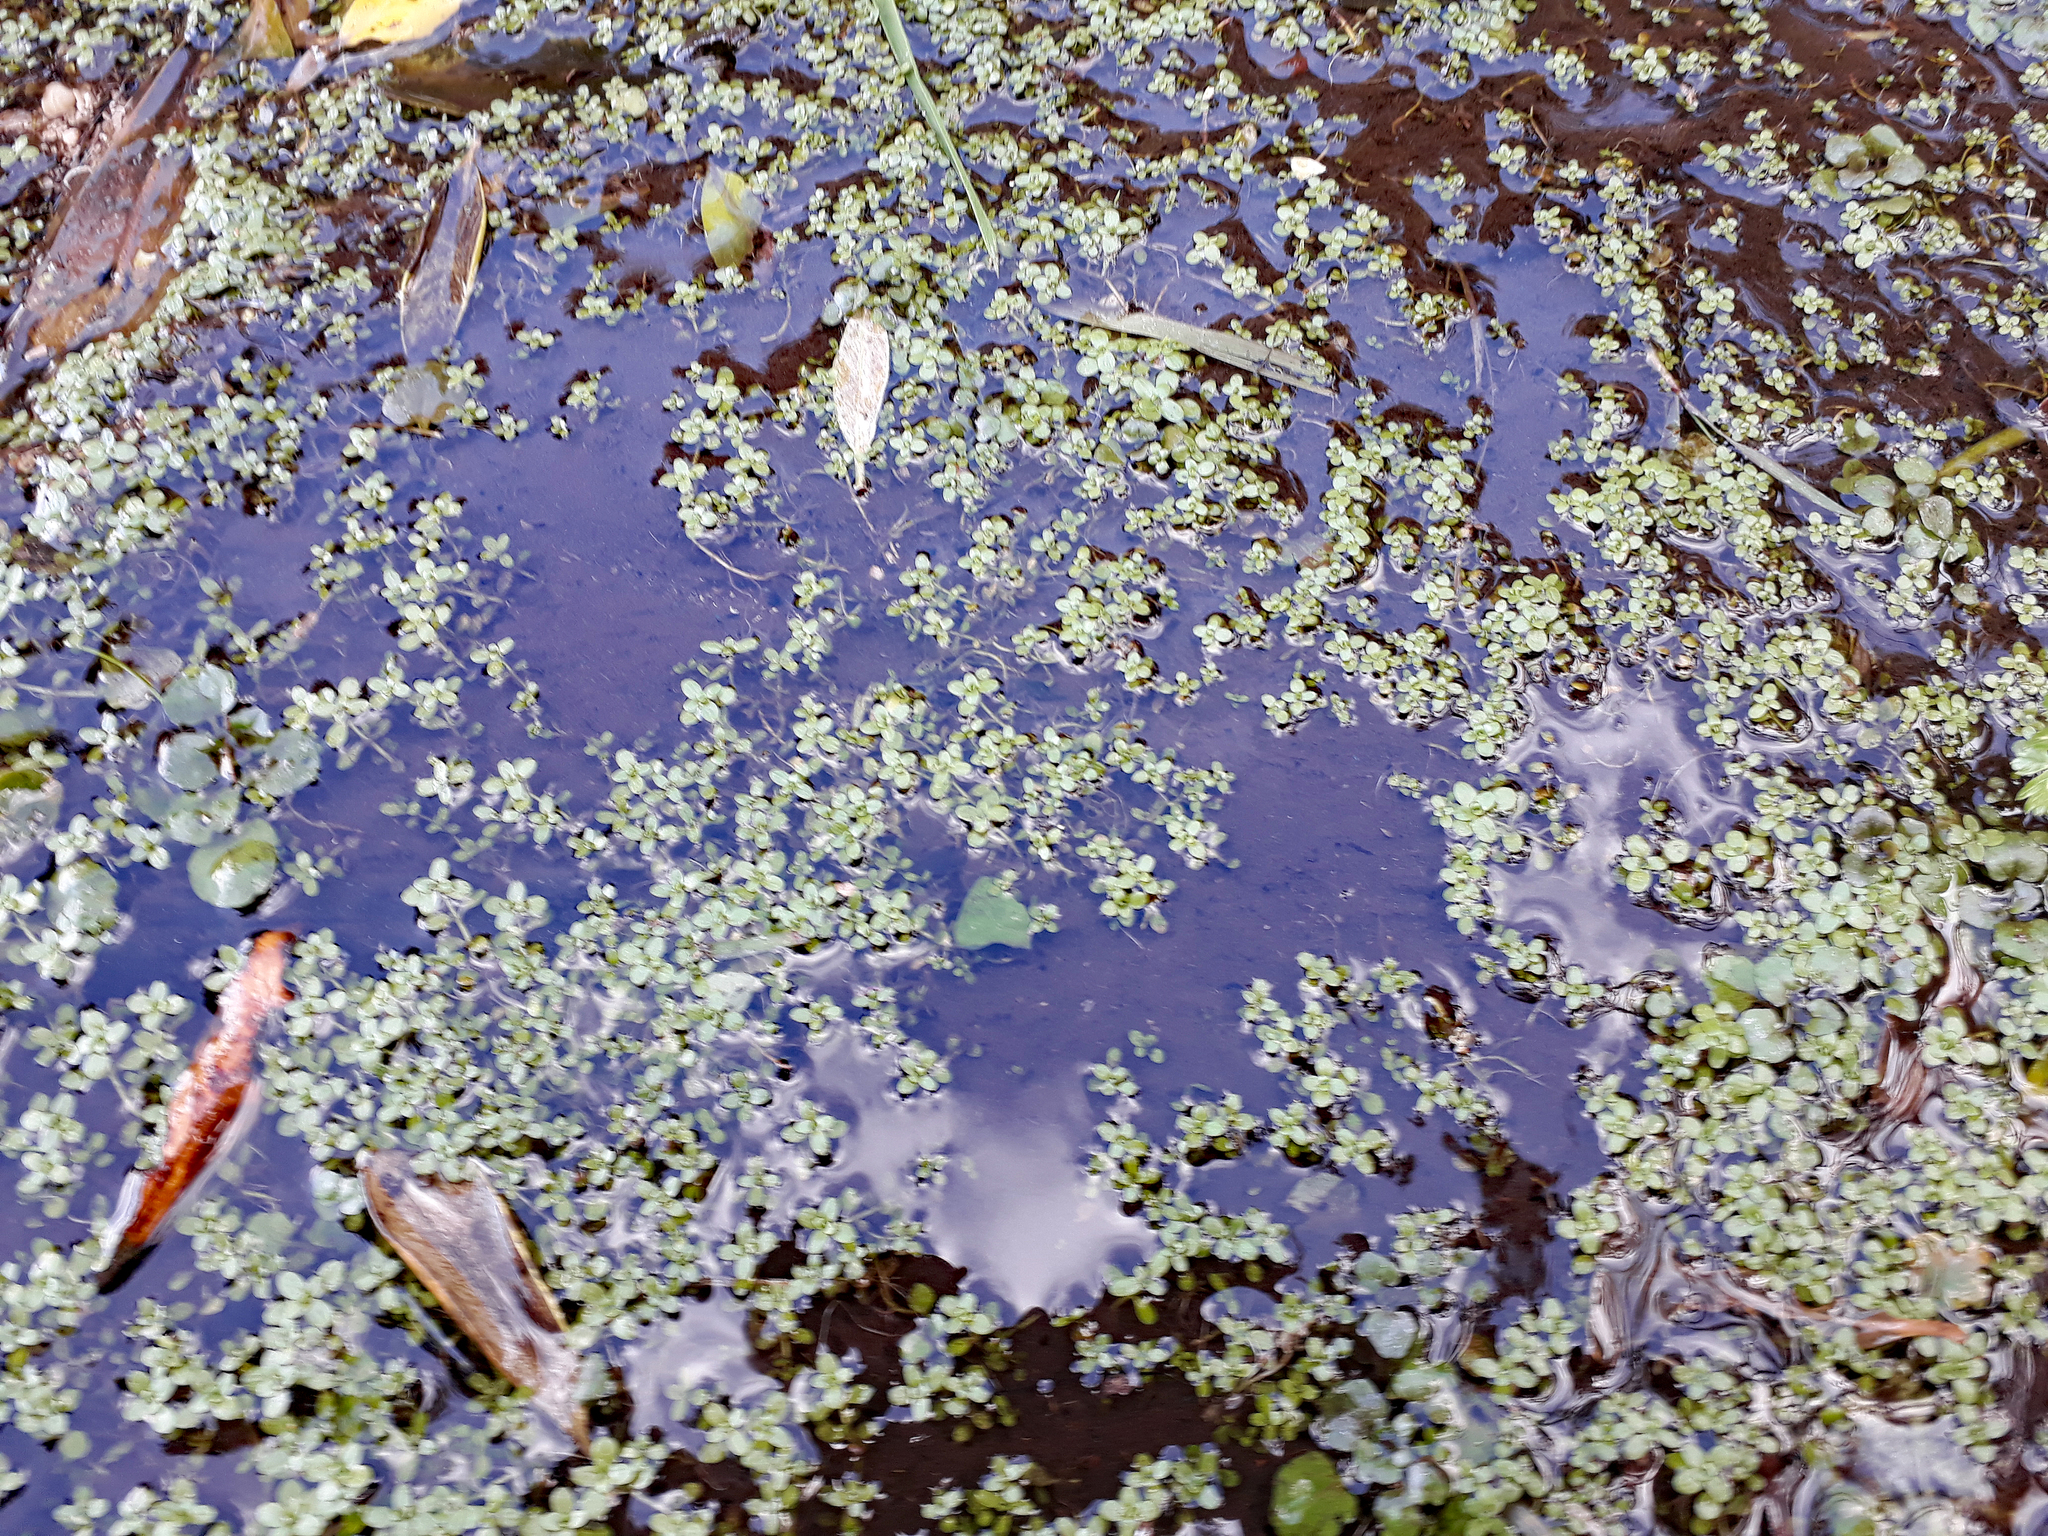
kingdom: Plantae
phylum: Tracheophyta
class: Magnoliopsida
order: Lamiales
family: Plantaginaceae
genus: Callitriche
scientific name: Callitriche chathamensis
